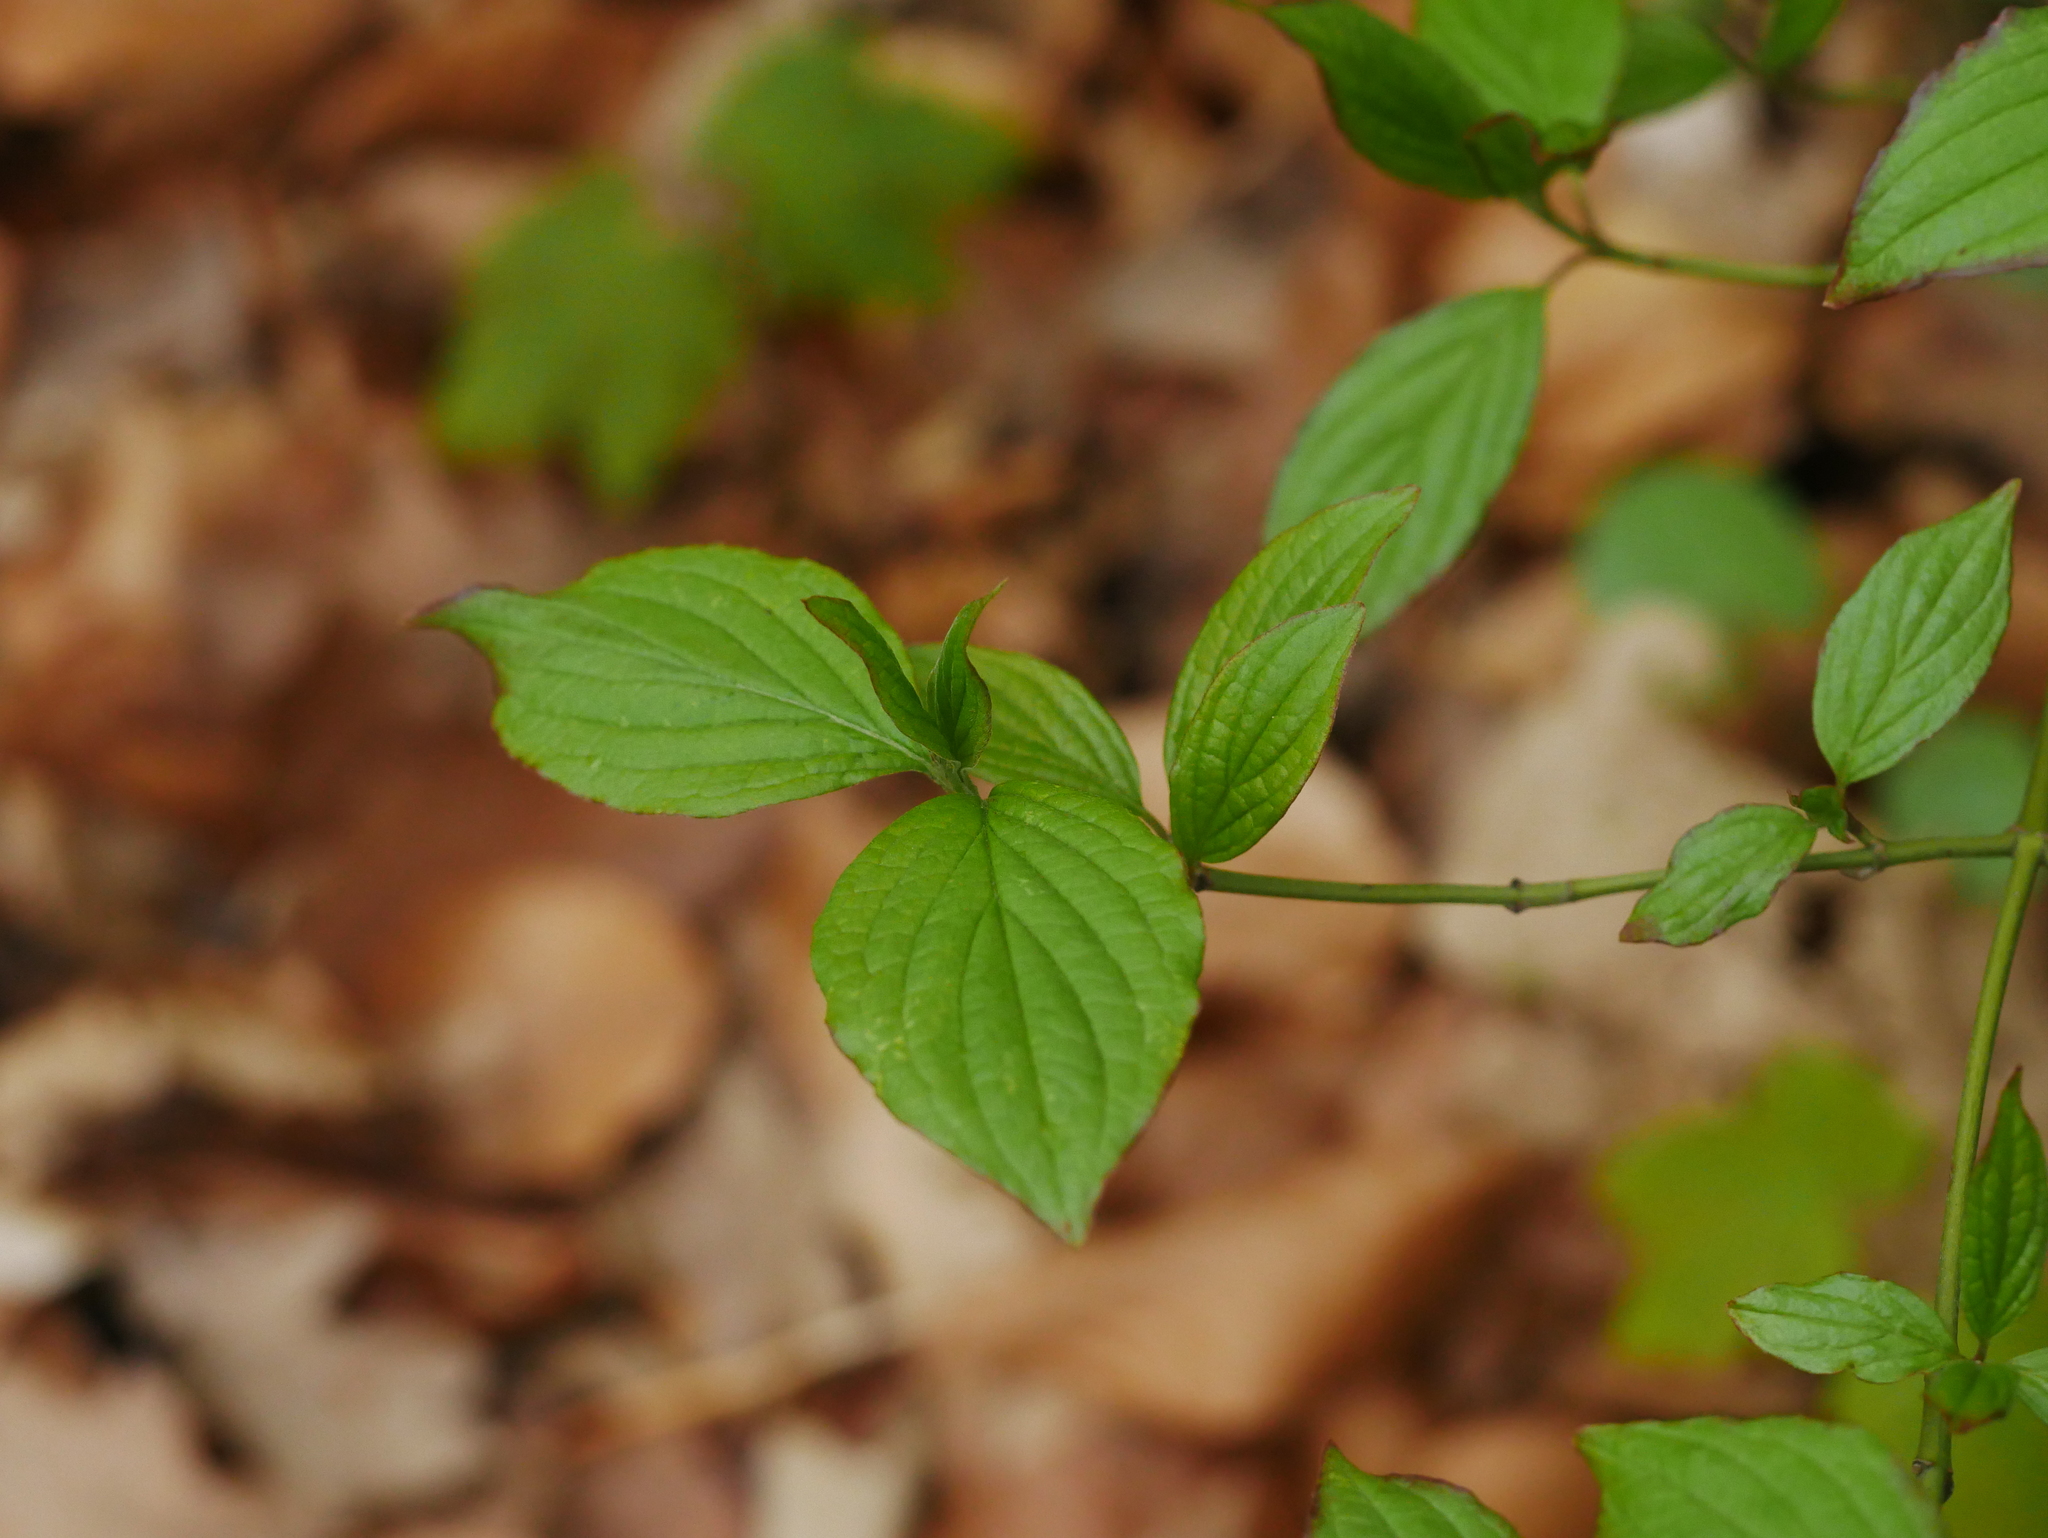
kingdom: Plantae
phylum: Tracheophyta
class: Magnoliopsida
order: Cornales
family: Cornaceae
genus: Cornus
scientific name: Cornus sanguinea
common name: Dogwood
